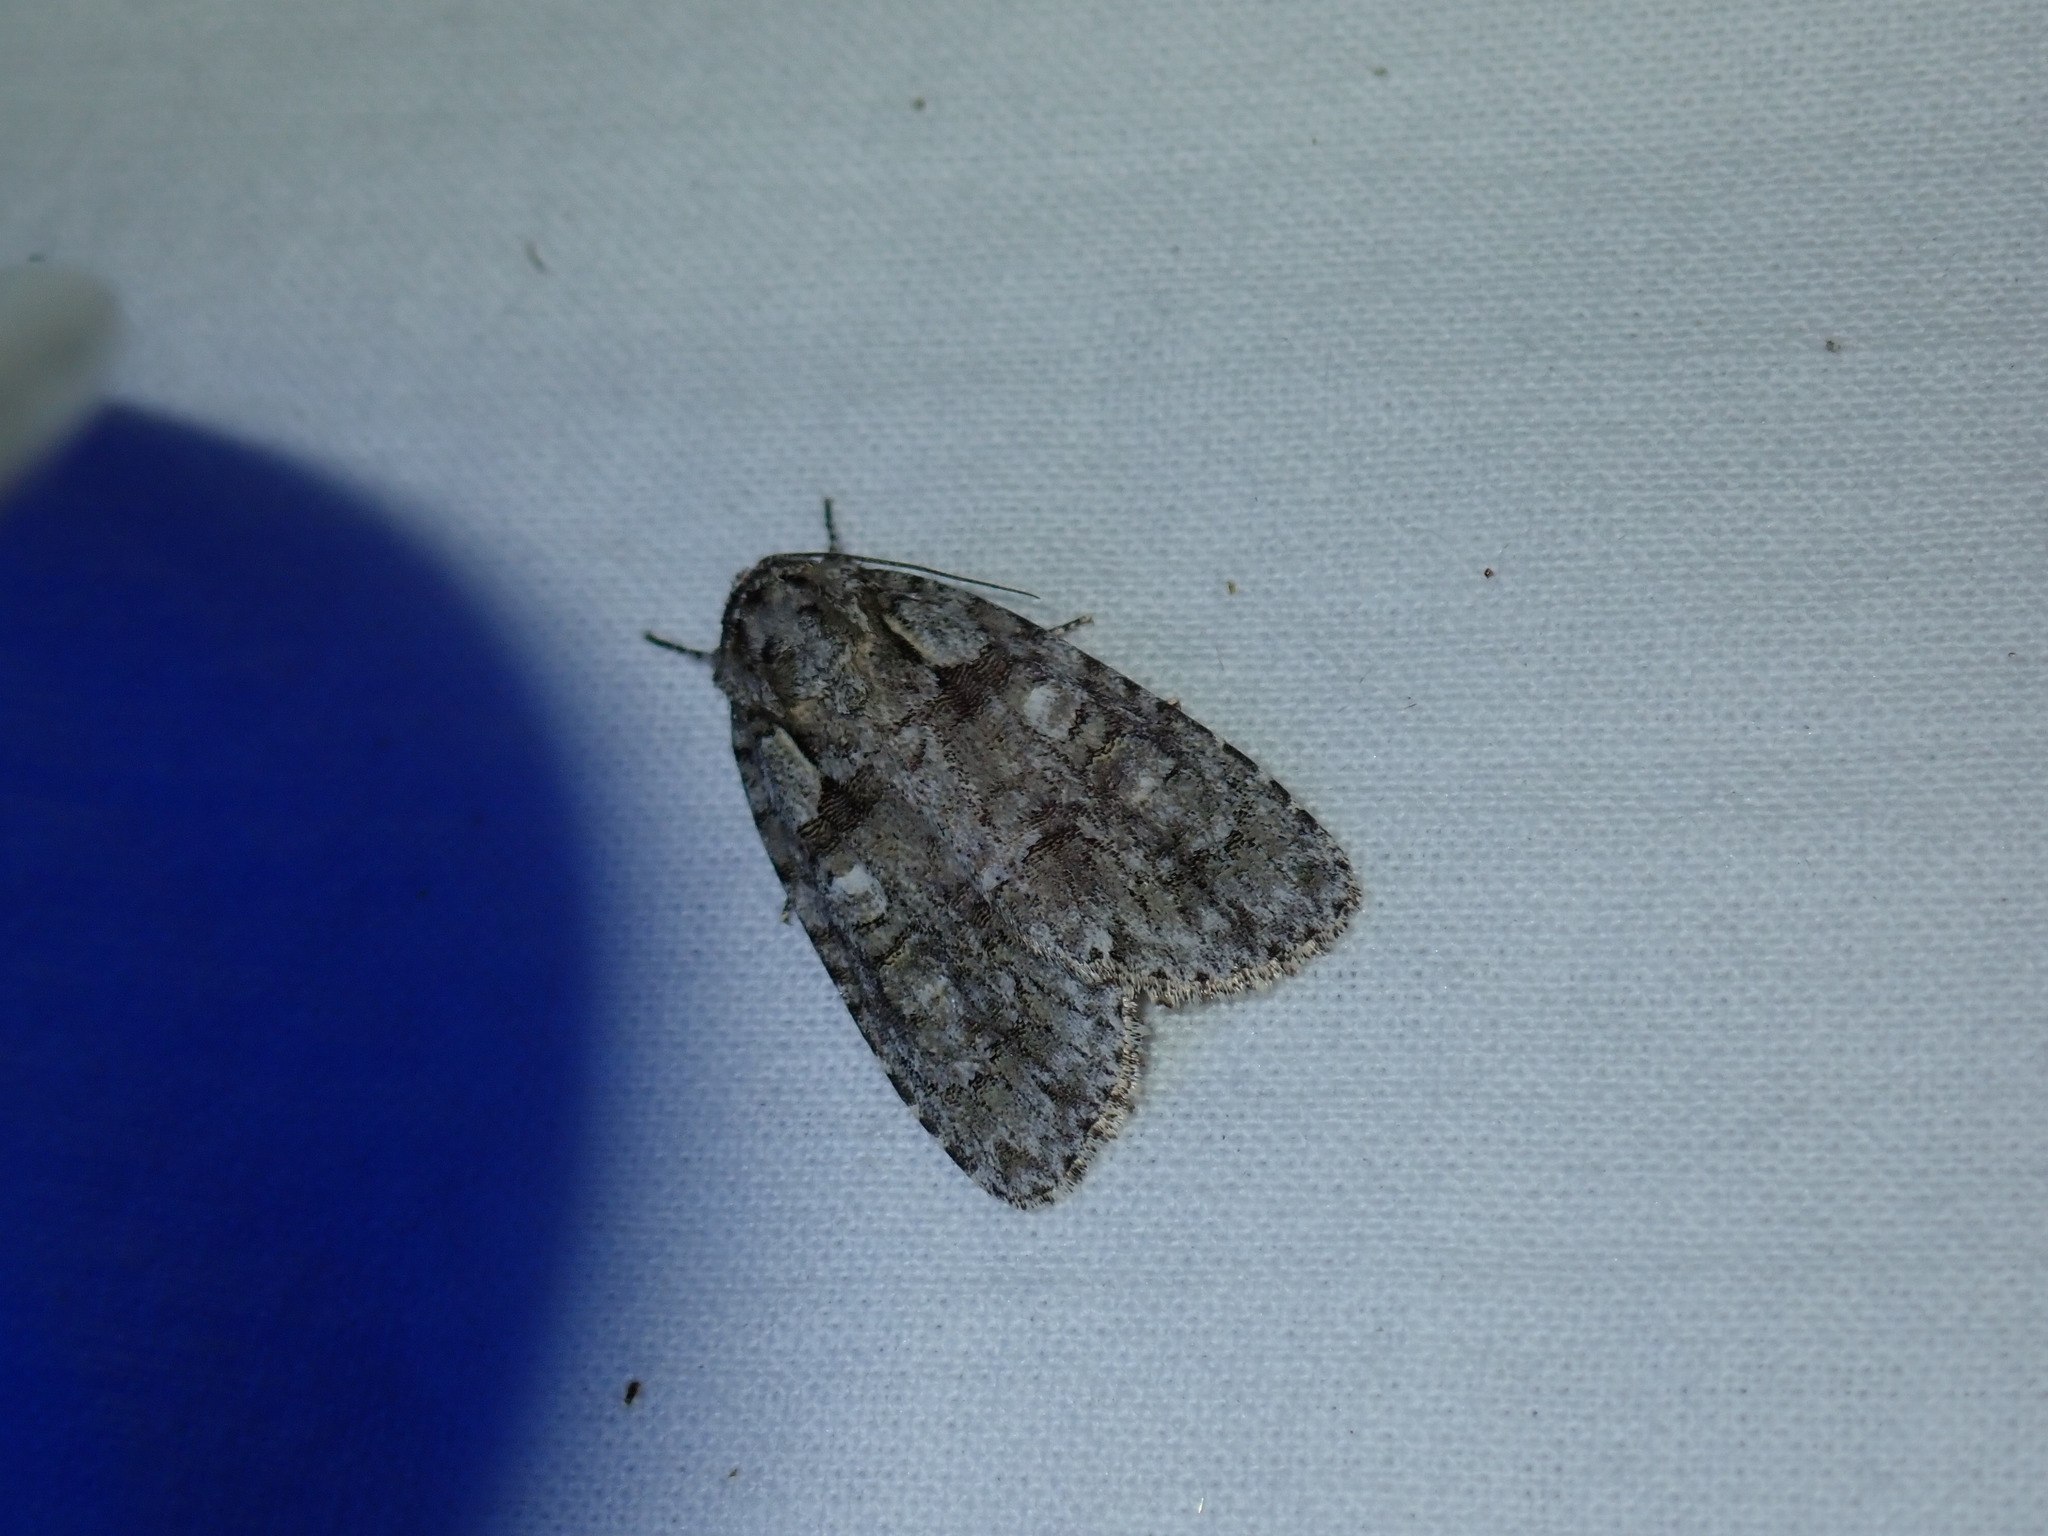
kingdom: Animalia
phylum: Arthropoda
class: Insecta
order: Lepidoptera
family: Noctuidae
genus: Acronicta
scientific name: Acronicta increta
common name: Eclipsed oak dagger
